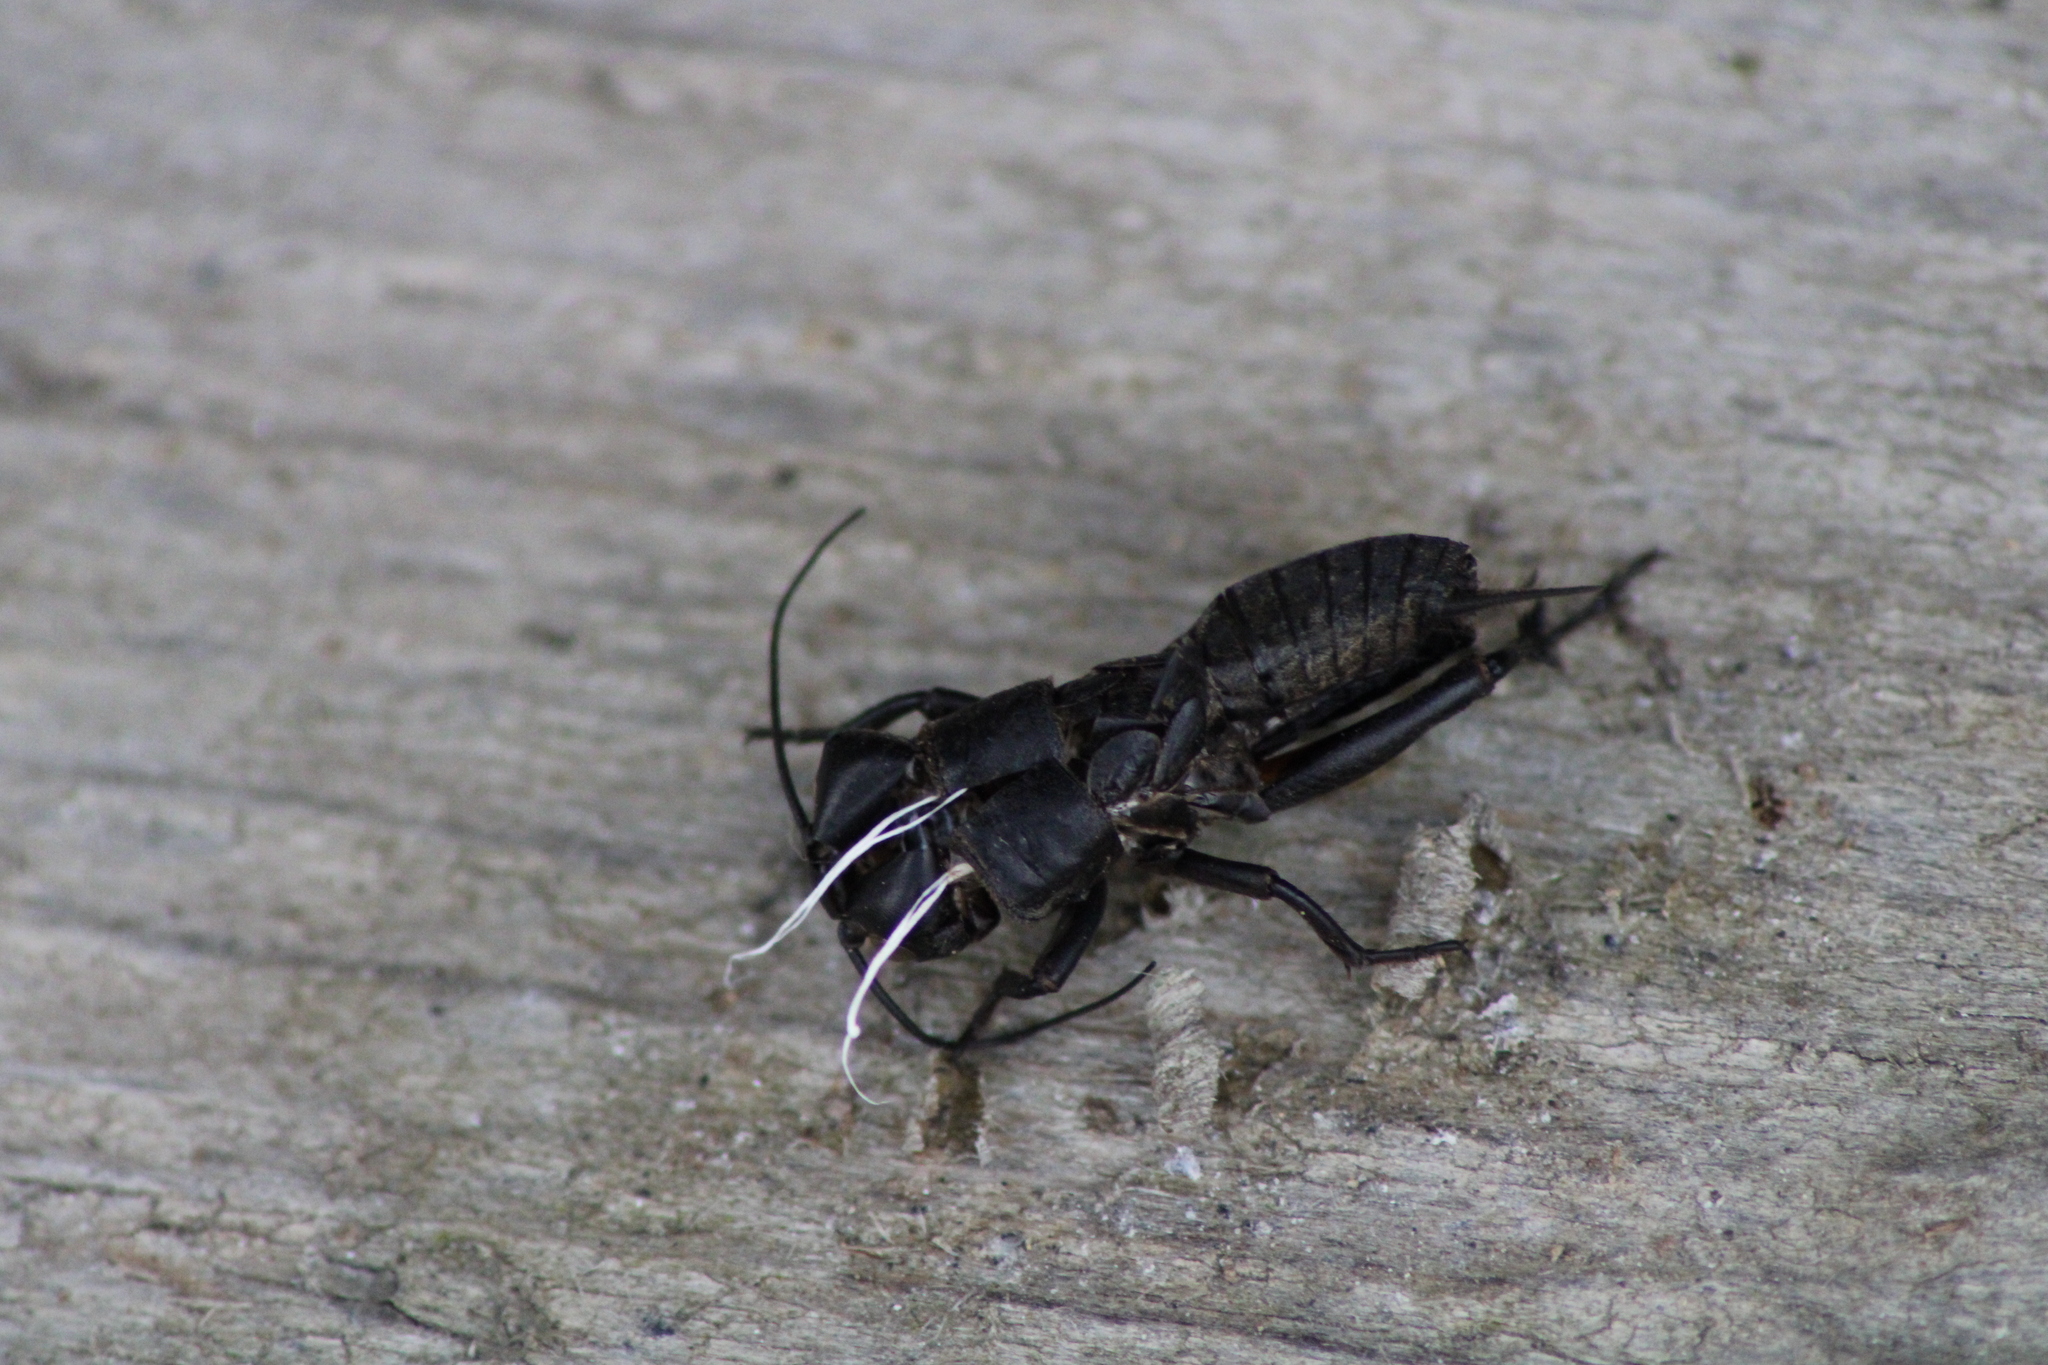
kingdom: Animalia
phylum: Arthropoda
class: Insecta
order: Orthoptera
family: Gryllidae
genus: Gryllus
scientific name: Gryllus campestris
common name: Field cricket
